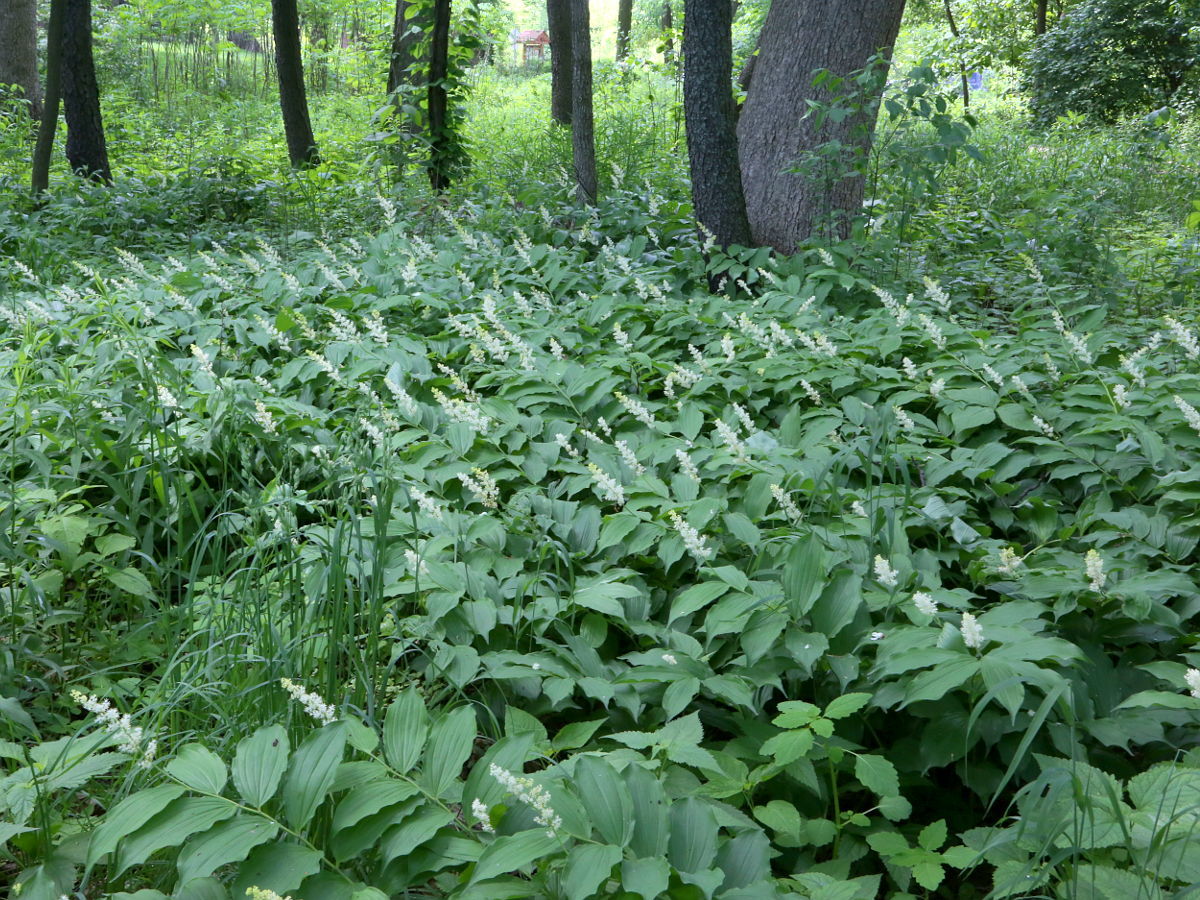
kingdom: Plantae
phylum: Tracheophyta
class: Liliopsida
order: Asparagales
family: Asparagaceae
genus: Maianthemum
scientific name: Maianthemum racemosum
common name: False spikenard
